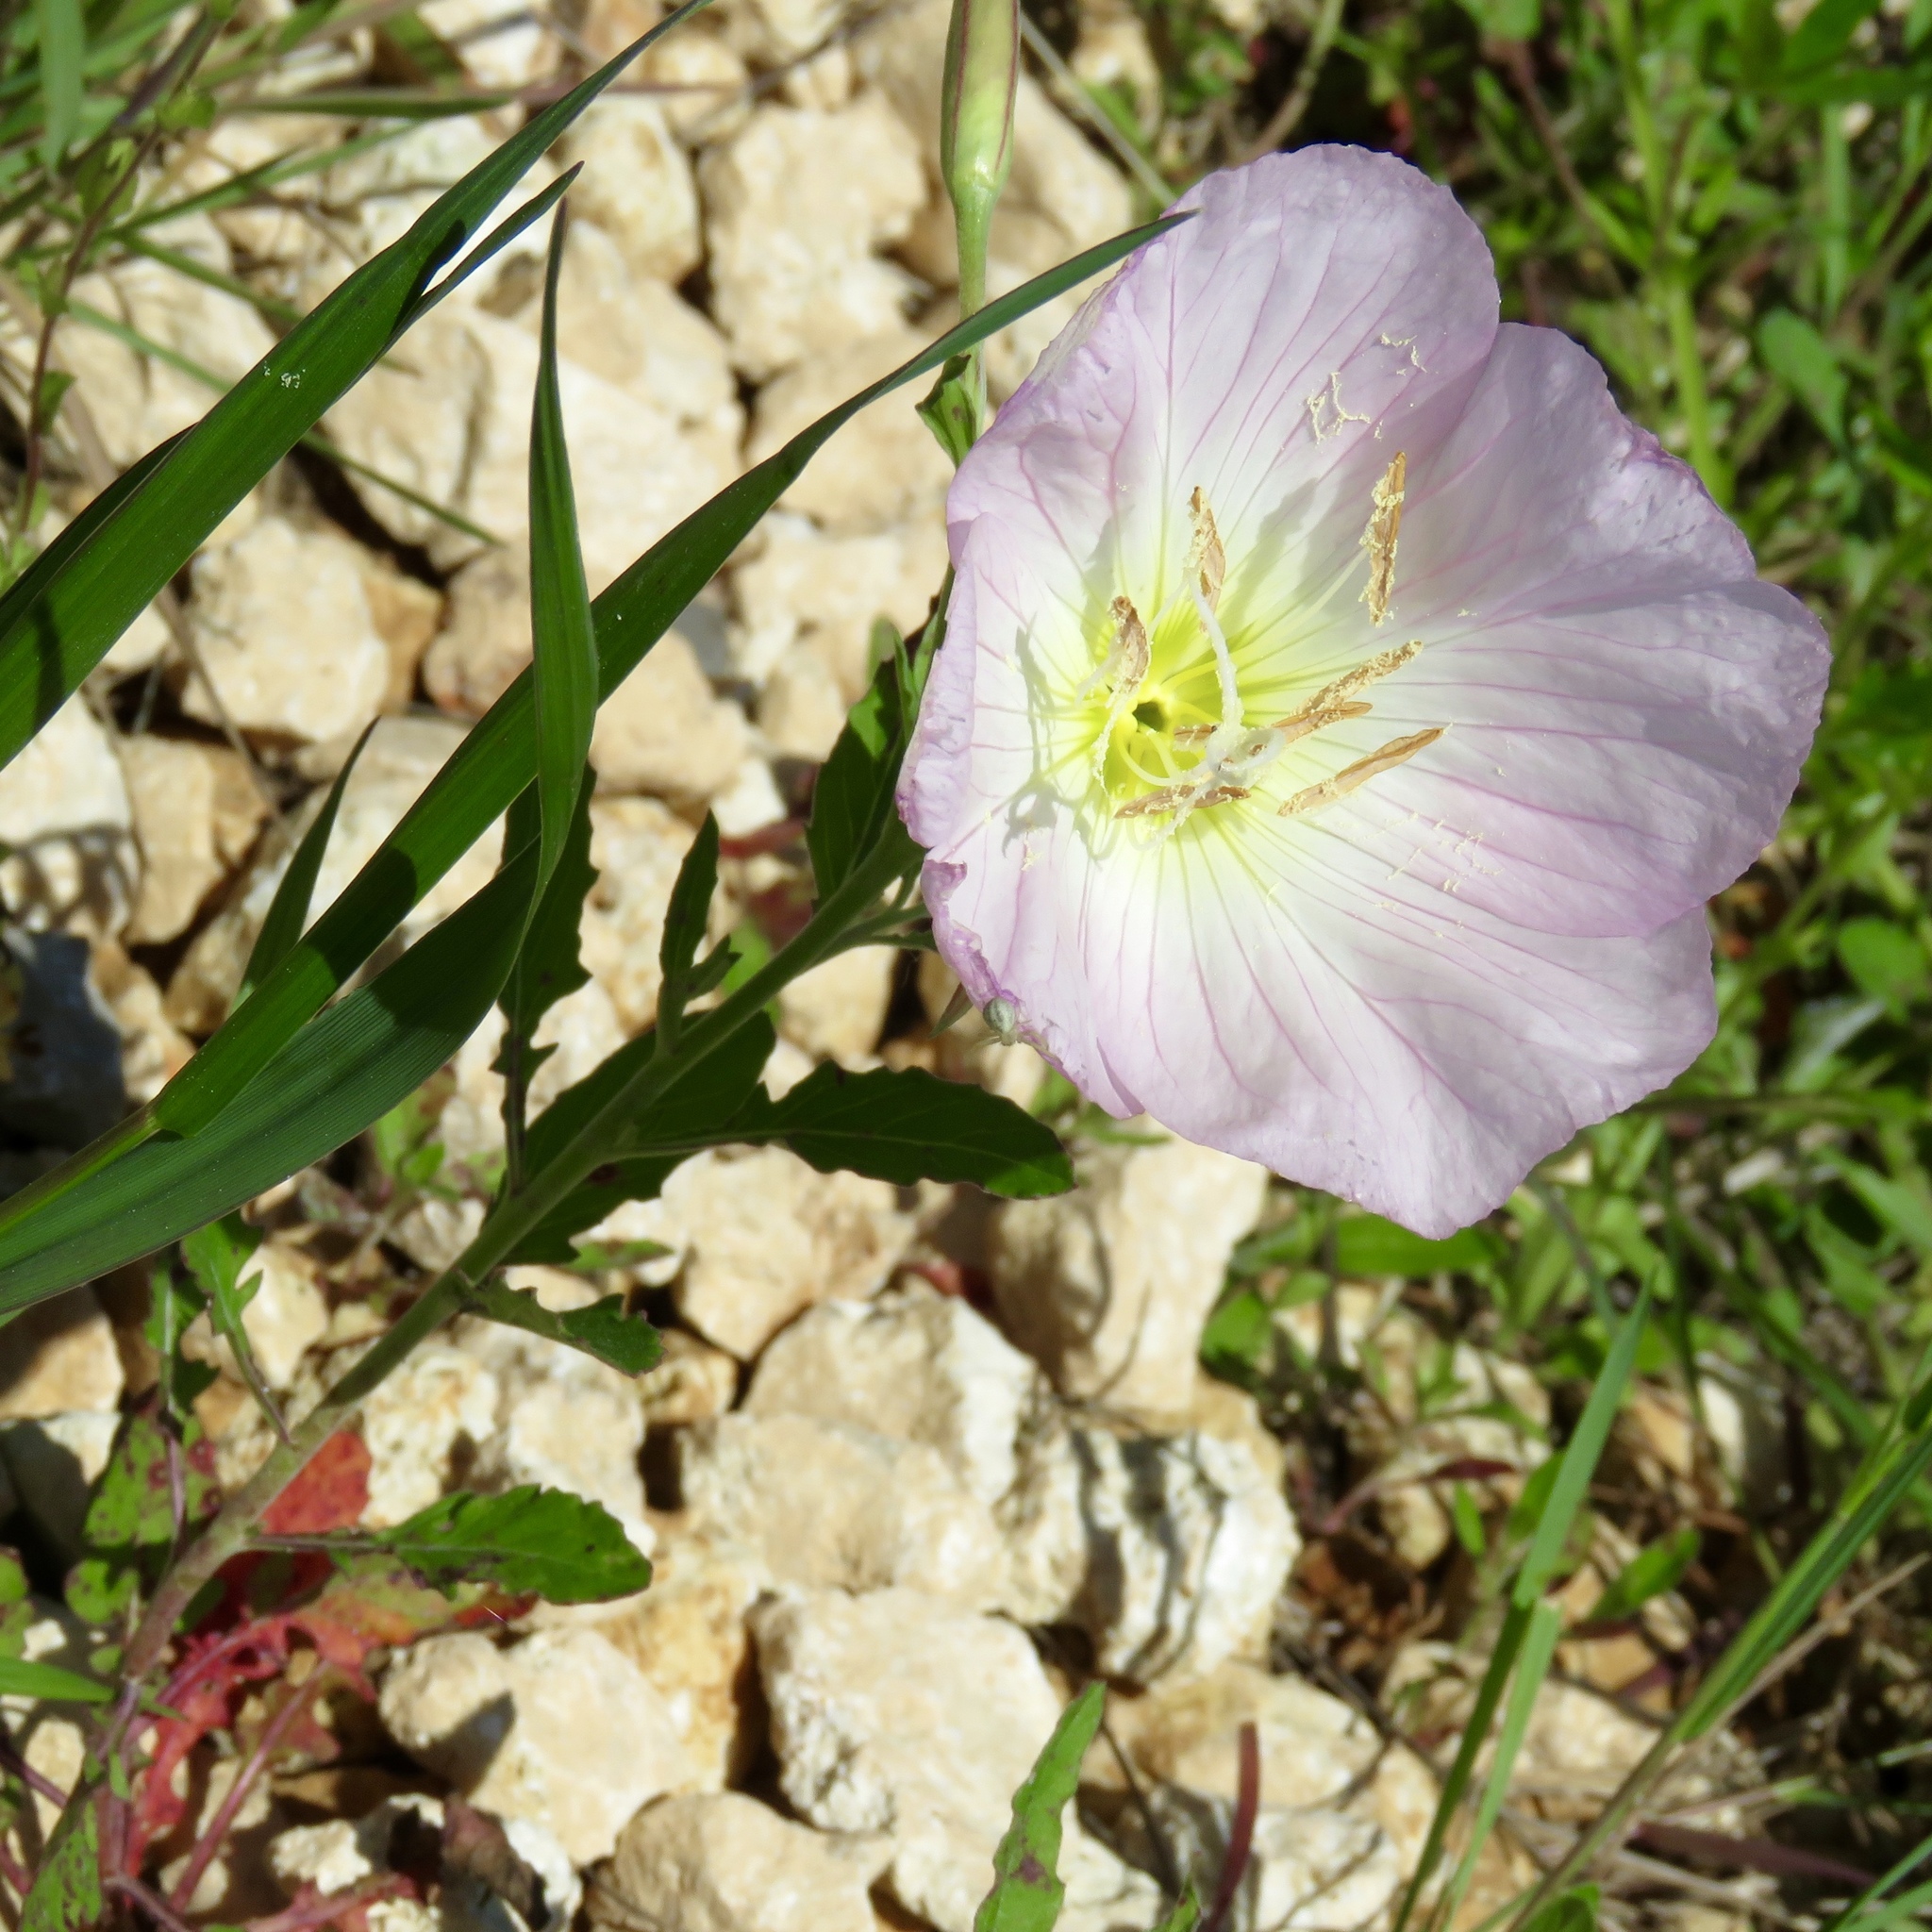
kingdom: Plantae
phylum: Tracheophyta
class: Magnoliopsida
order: Myrtales
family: Onagraceae
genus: Oenothera
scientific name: Oenothera speciosa
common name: White evening-primrose
